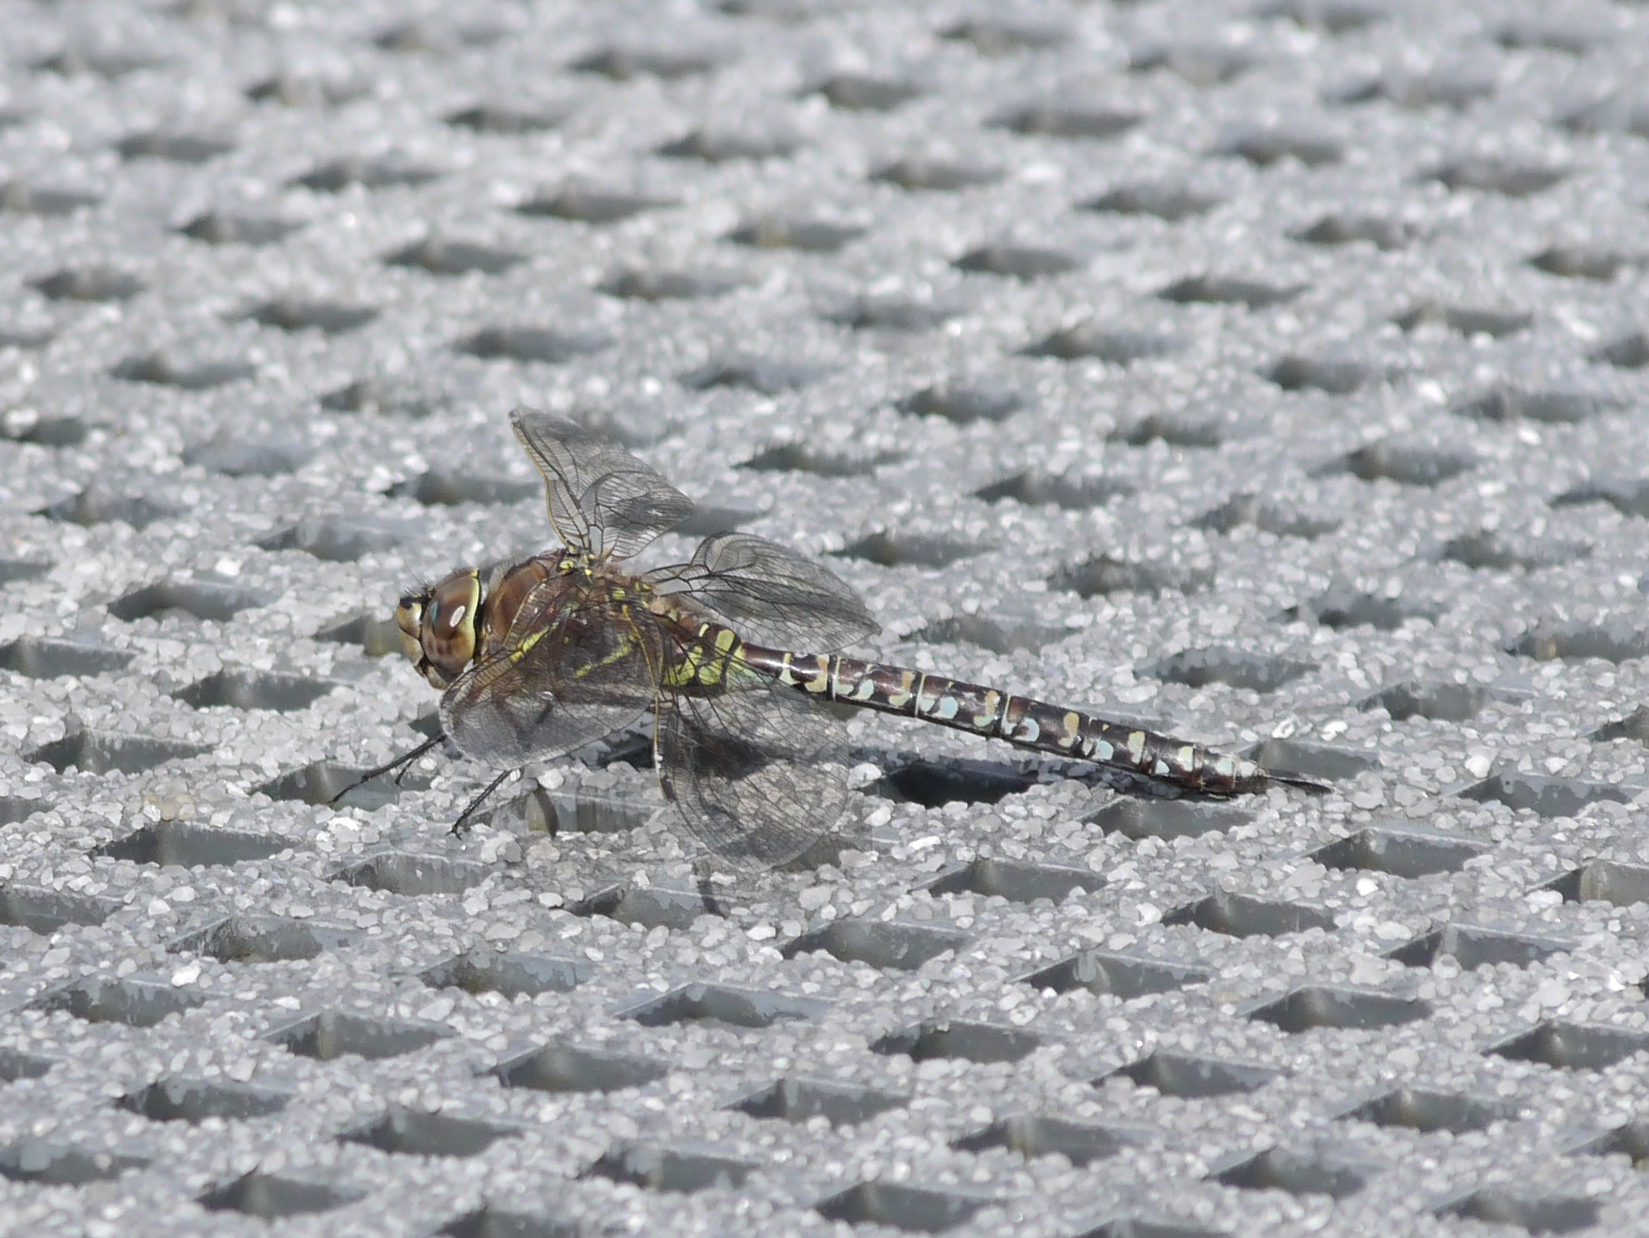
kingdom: Animalia
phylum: Arthropoda
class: Insecta
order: Odonata
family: Aeshnidae
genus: Aeshna
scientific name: Aeshna interrupta
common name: Variable darner
